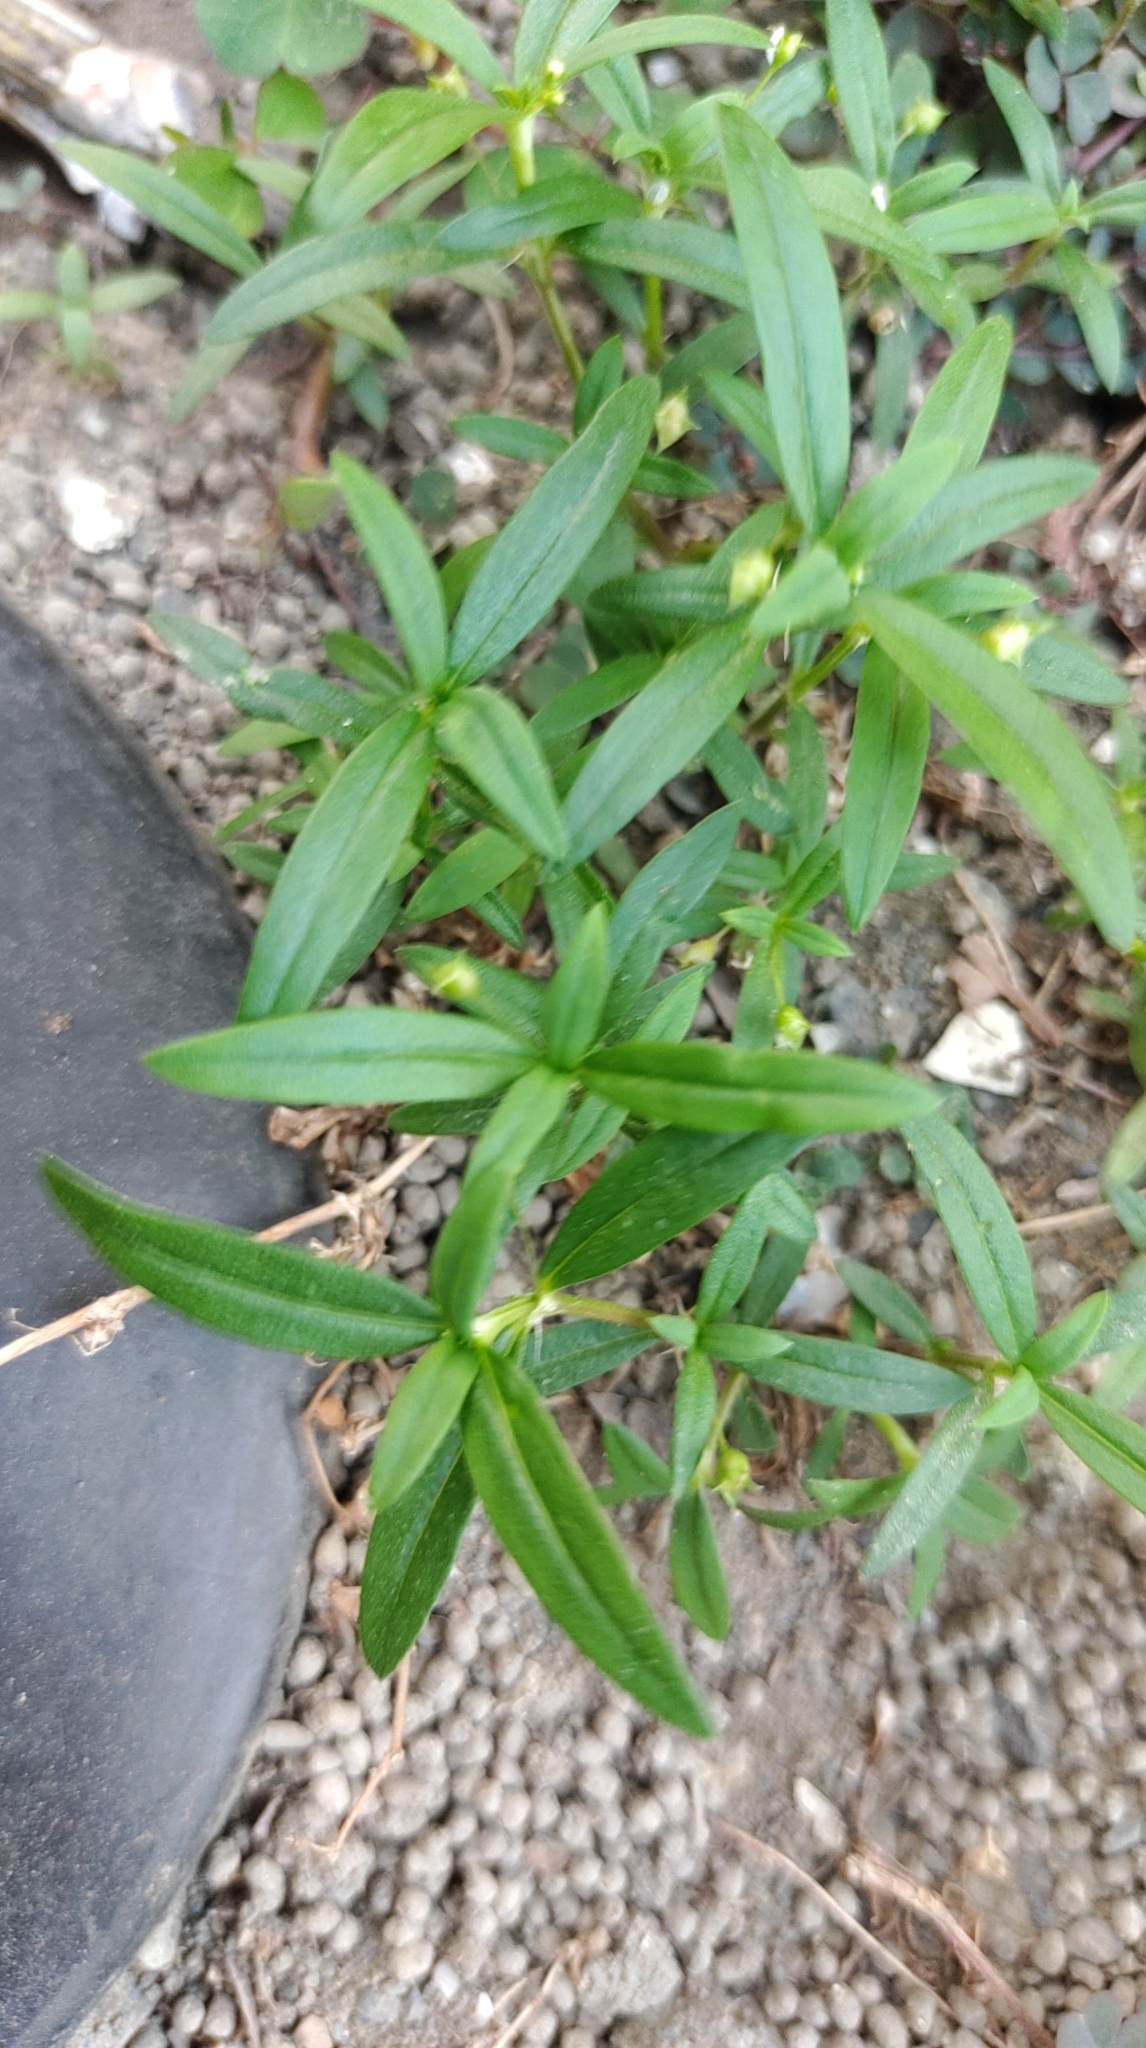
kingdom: Plantae
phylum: Tracheophyta
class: Magnoliopsida
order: Gentianales
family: Rubiaceae
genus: Oldenlandia
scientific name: Oldenlandia corymbosa
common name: Flat-top mille graines
